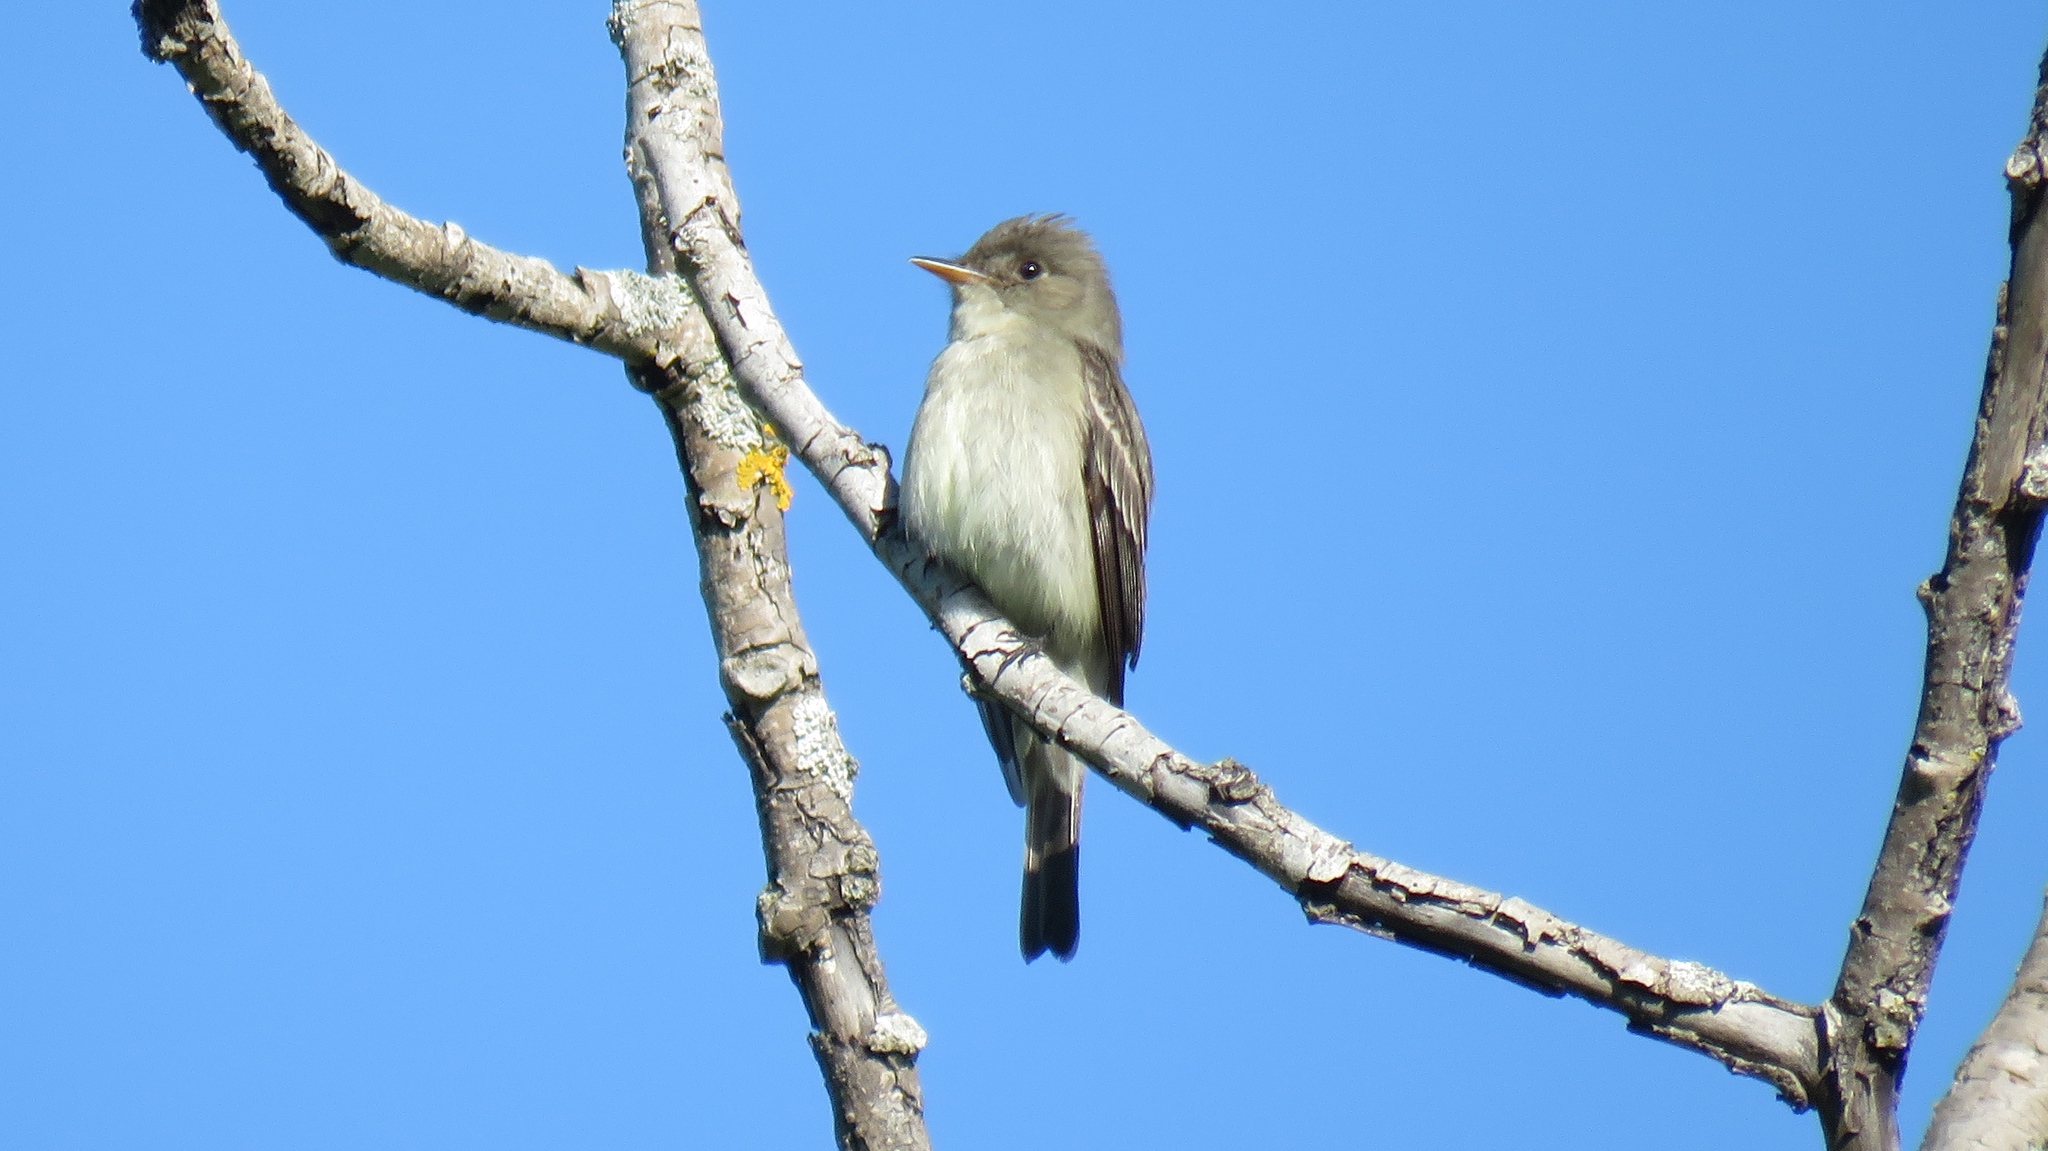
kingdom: Animalia
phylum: Chordata
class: Aves
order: Passeriformes
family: Tyrannidae
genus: Contopus
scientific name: Contopus virens
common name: Eastern wood-pewee
